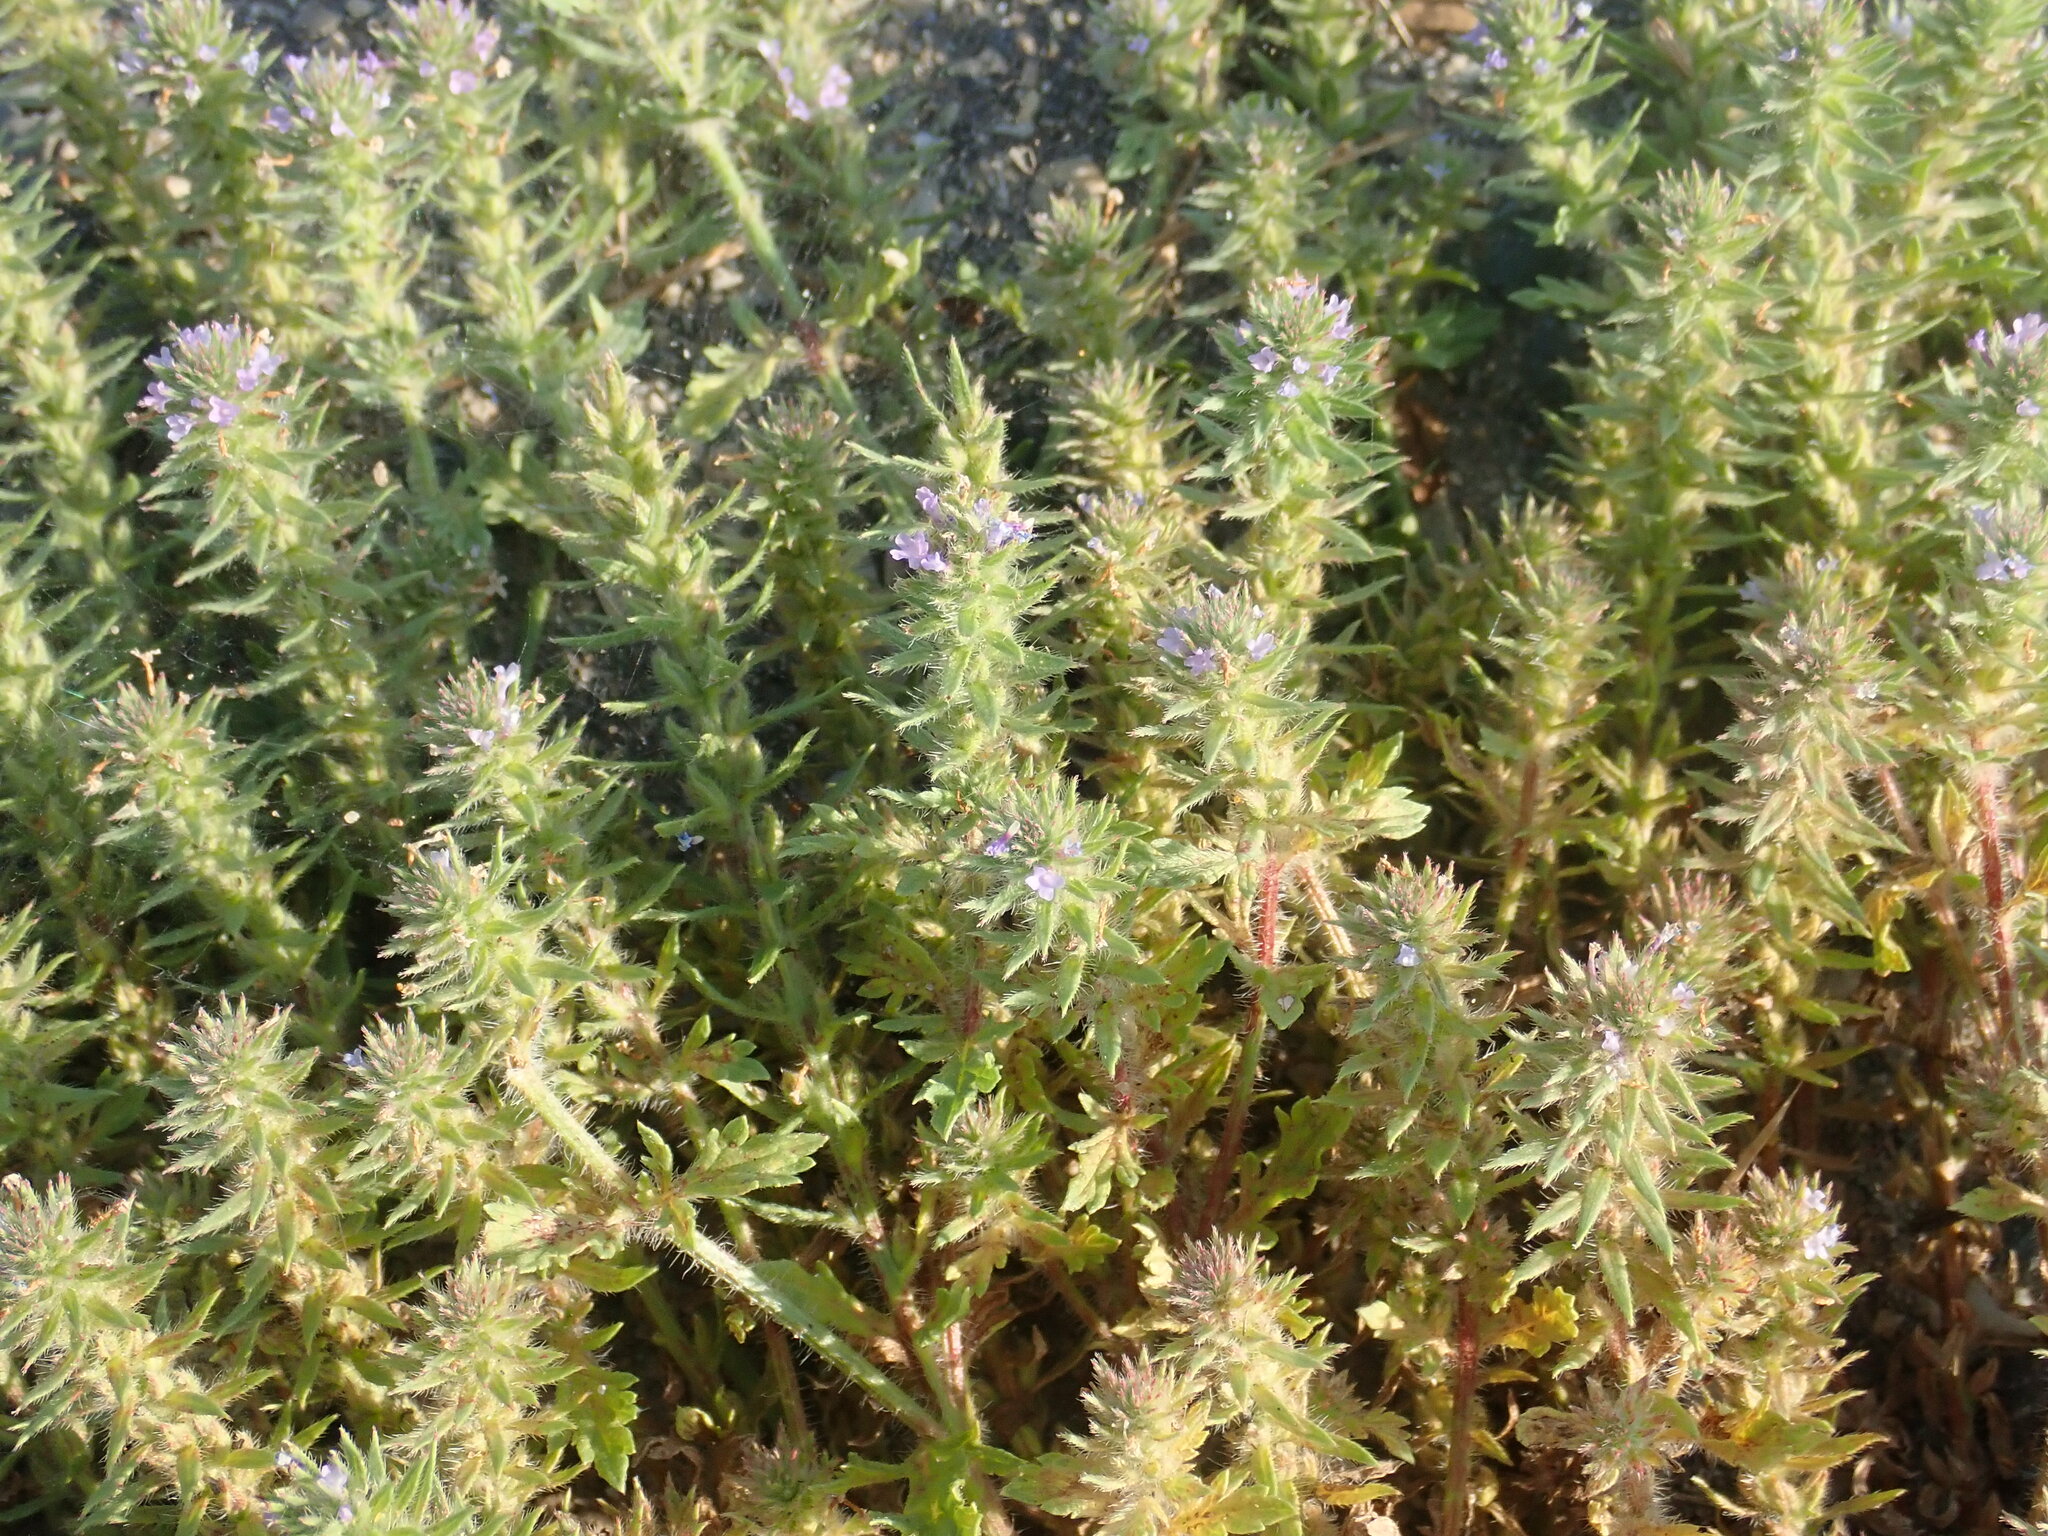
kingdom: Plantae
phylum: Tracheophyta
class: Magnoliopsida
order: Lamiales
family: Verbenaceae
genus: Verbena
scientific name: Verbena bracteata
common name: Bracted vervain
